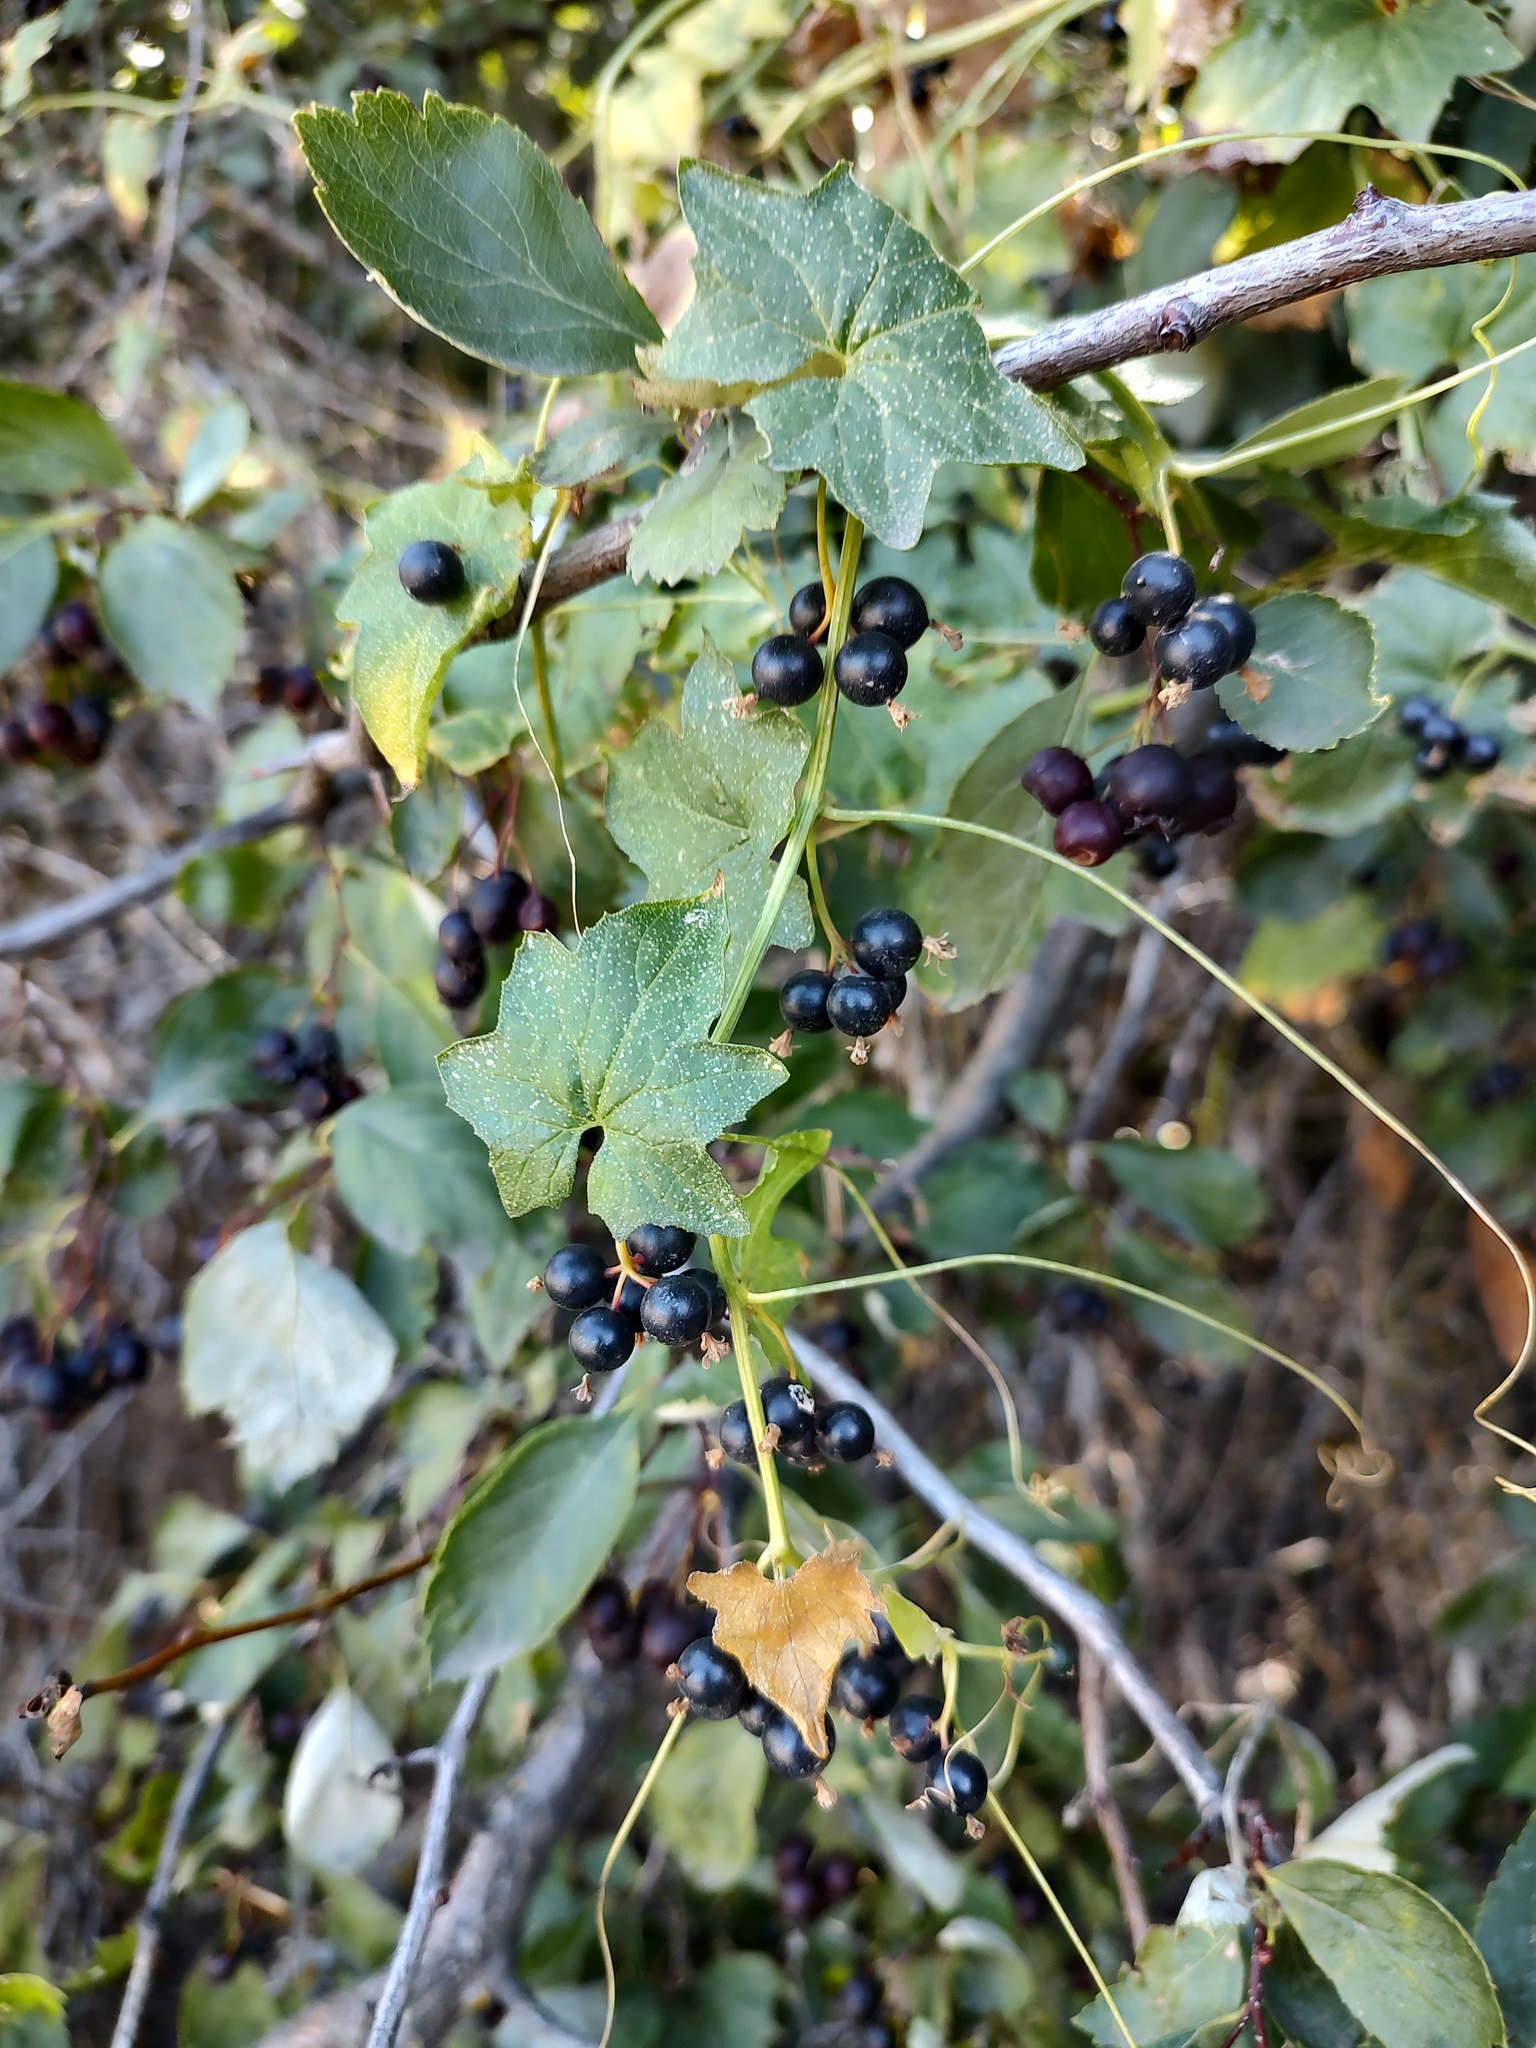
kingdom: Plantae
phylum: Tracheophyta
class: Magnoliopsida
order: Cucurbitales
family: Cucurbitaceae
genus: Bryonia
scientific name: Bryonia alba
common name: White bryony
